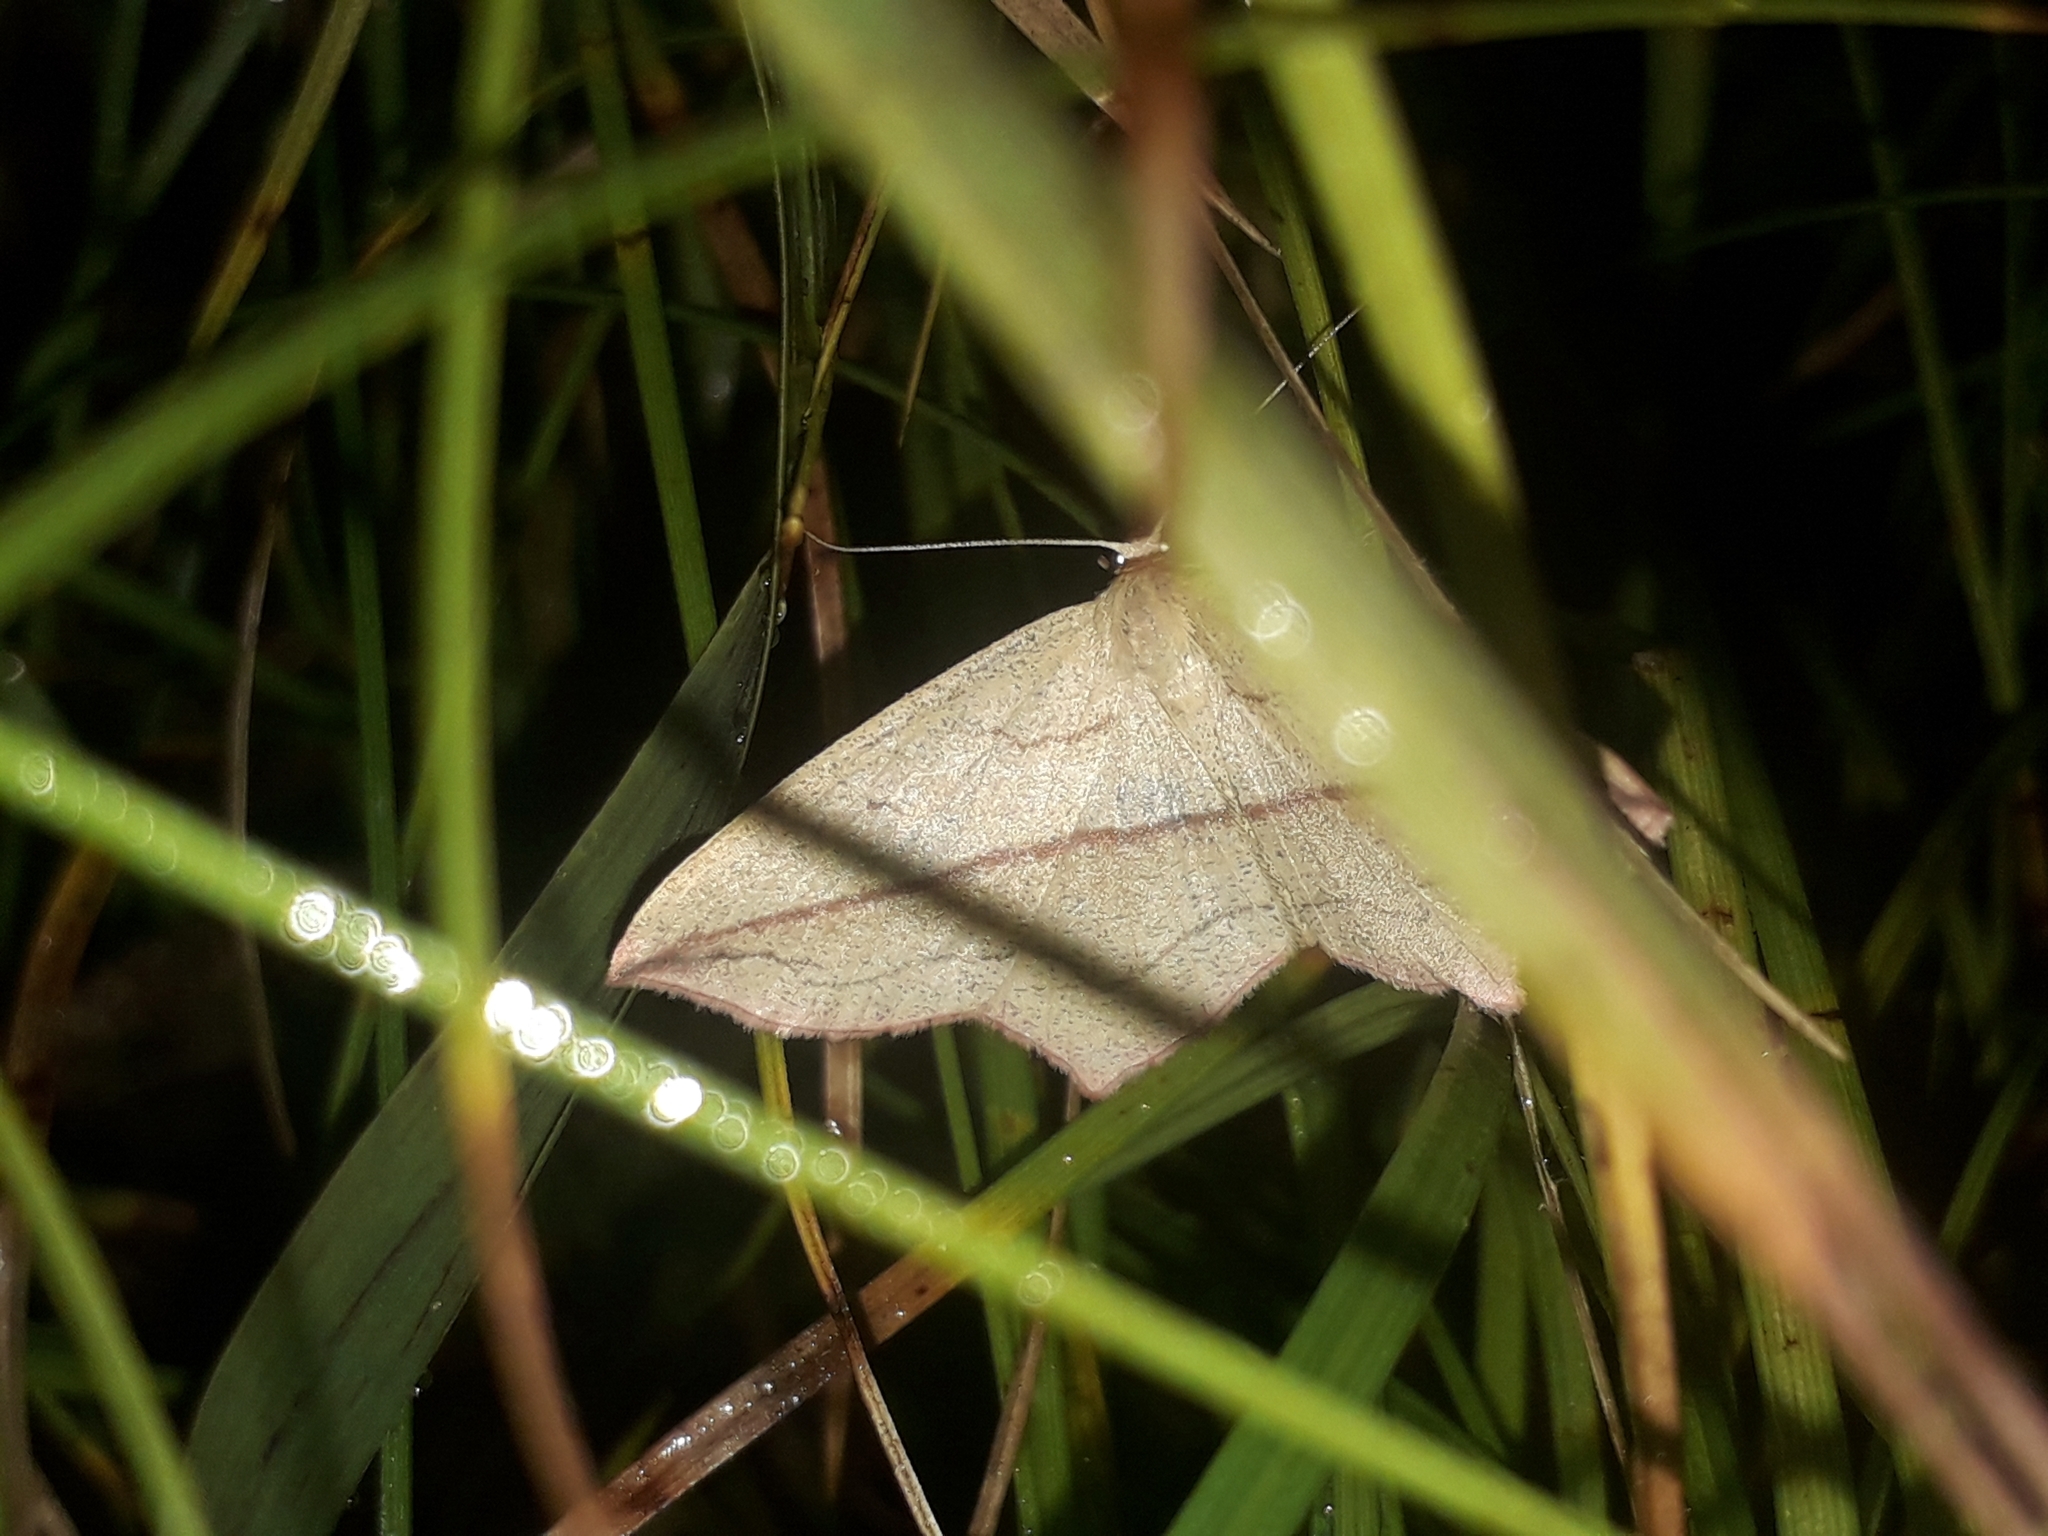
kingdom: Animalia
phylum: Arthropoda
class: Insecta
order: Lepidoptera
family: Geometridae
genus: Timandra
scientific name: Timandra comae
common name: Blood-vein
